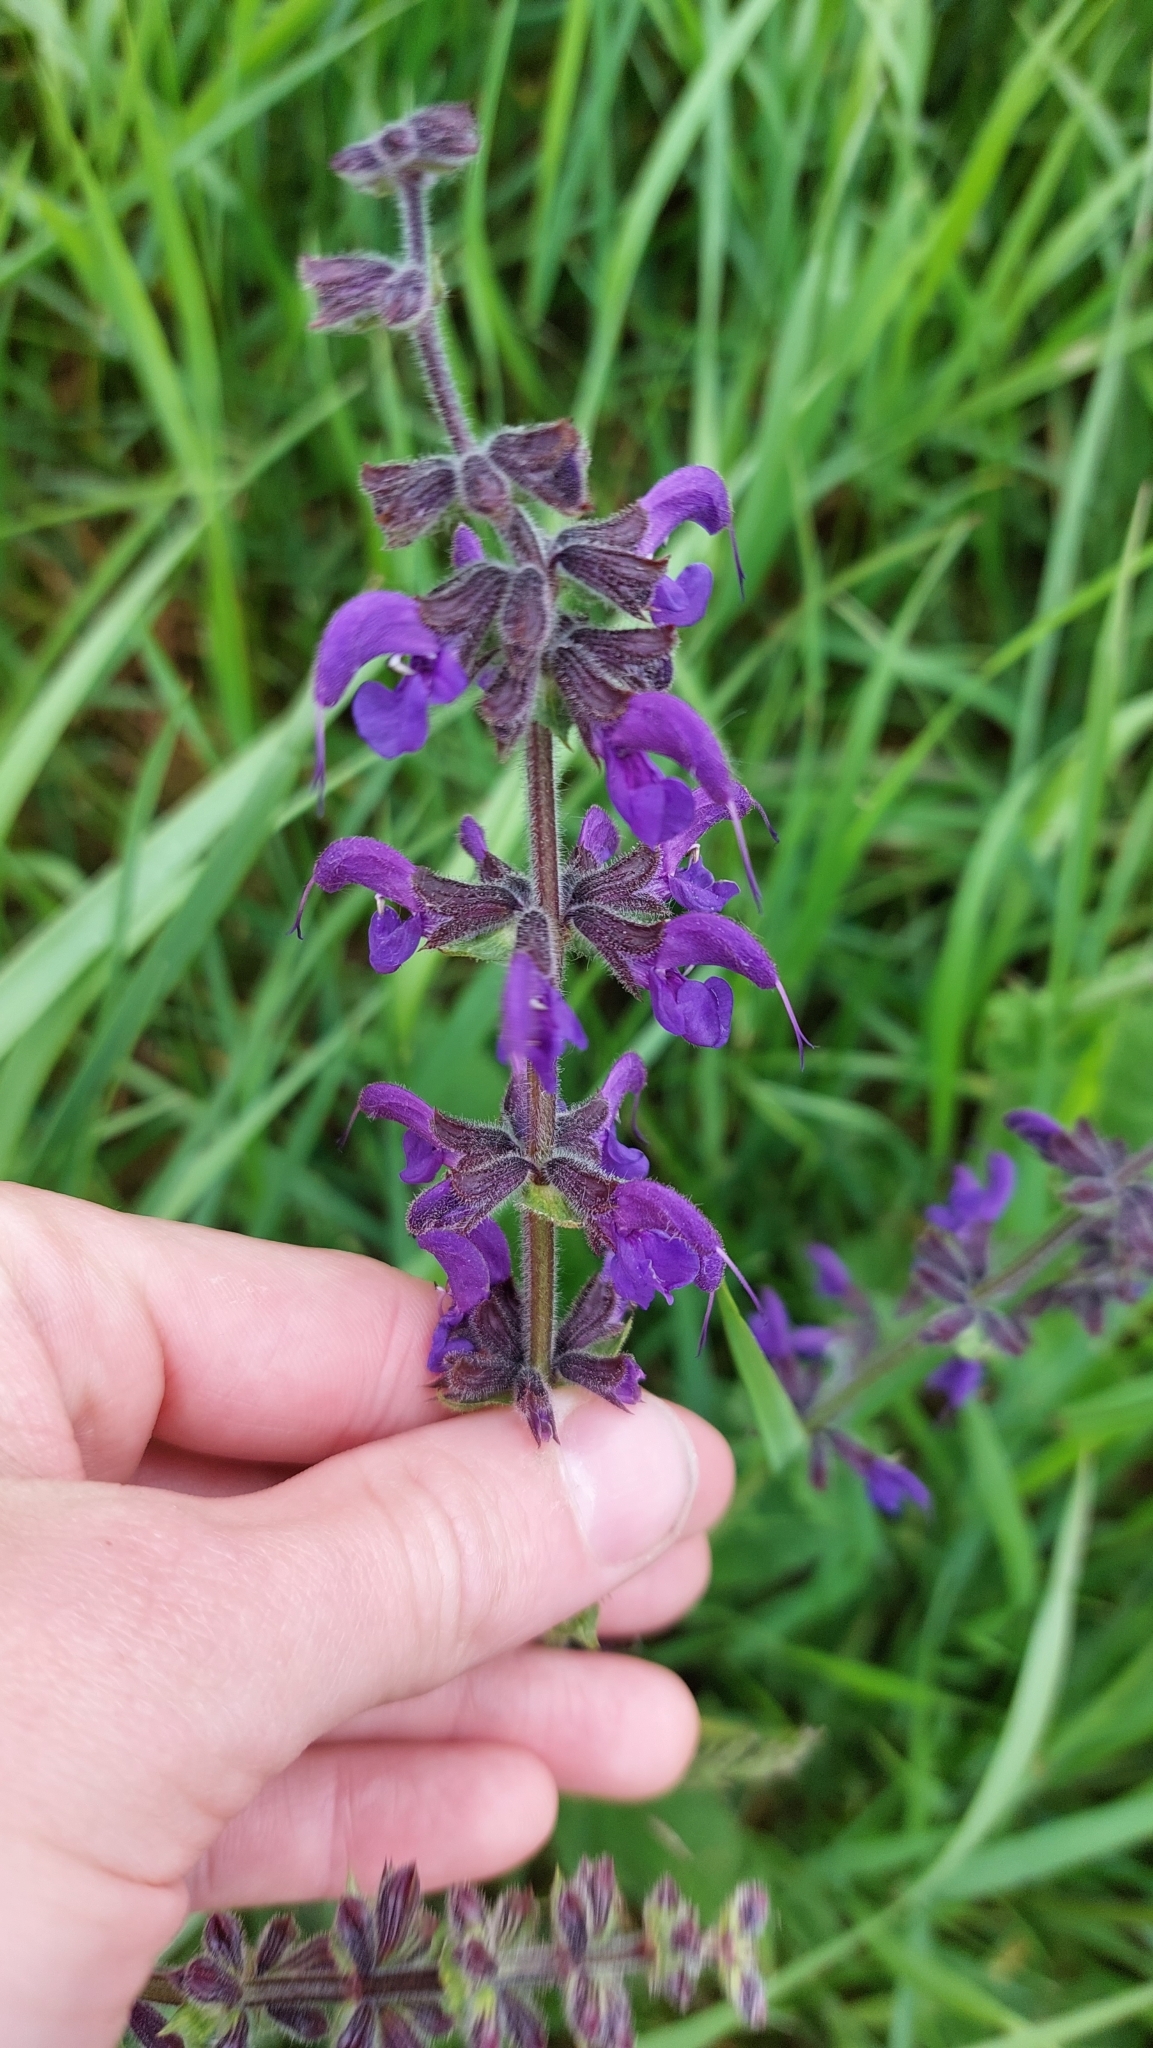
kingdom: Plantae
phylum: Tracheophyta
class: Magnoliopsida
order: Lamiales
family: Lamiaceae
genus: Salvia
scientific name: Salvia pratensis
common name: Meadow sage
